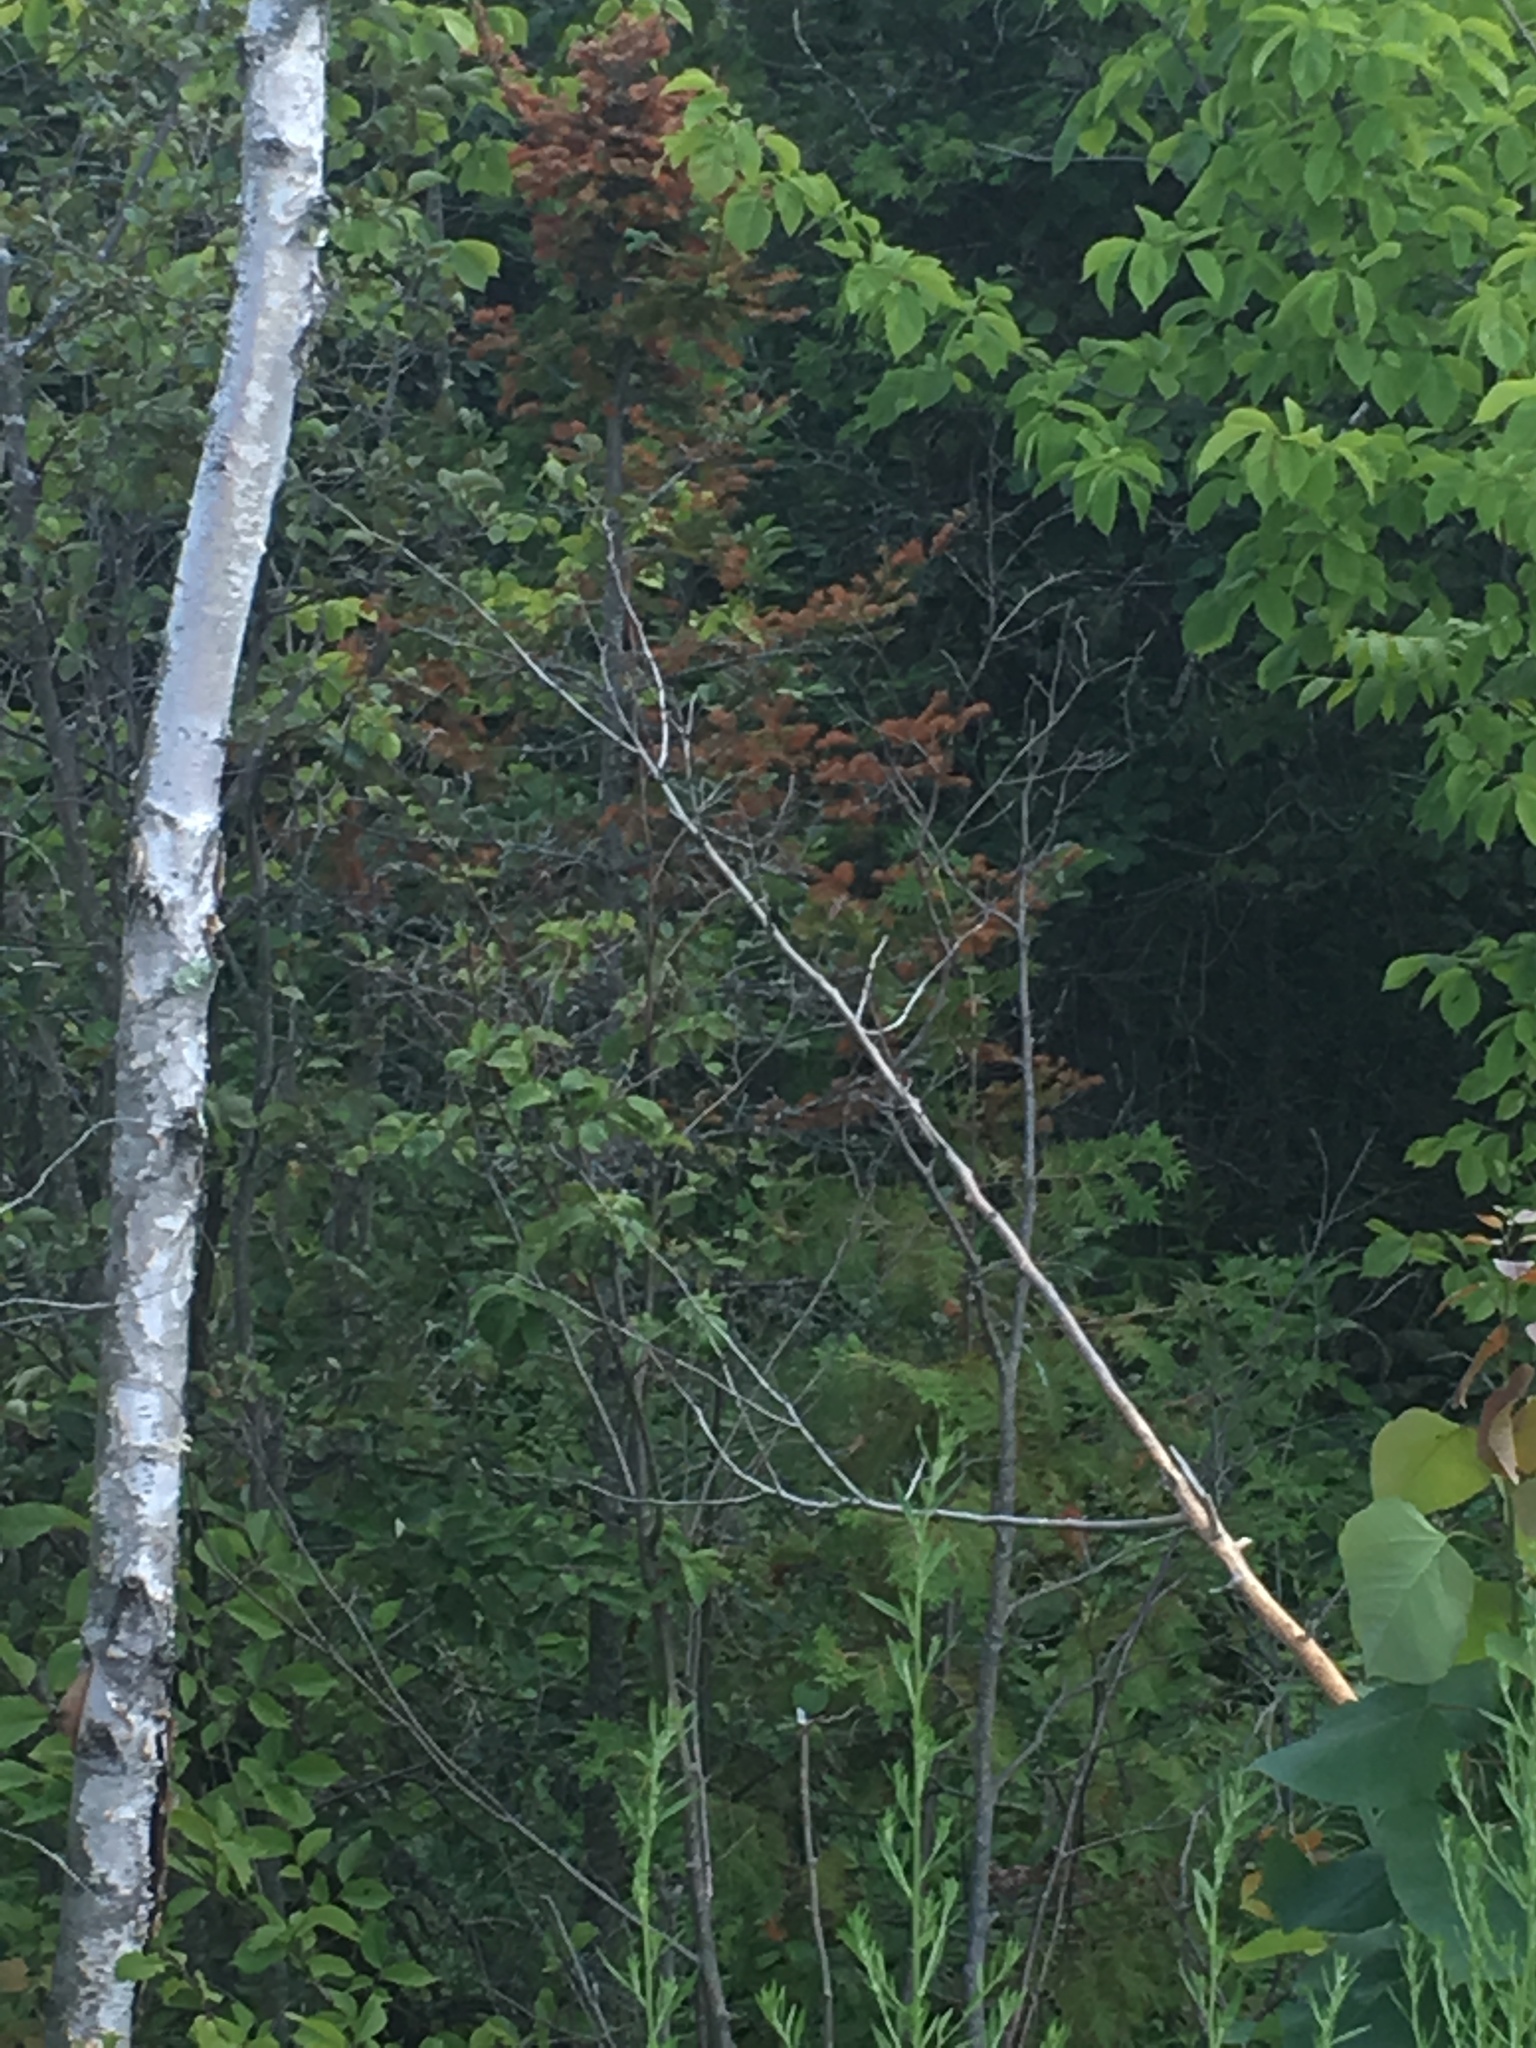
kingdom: Plantae
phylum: Tracheophyta
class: Pinopsida
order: Pinales
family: Pinaceae
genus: Abies
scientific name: Abies balsamea
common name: Balsam fir
